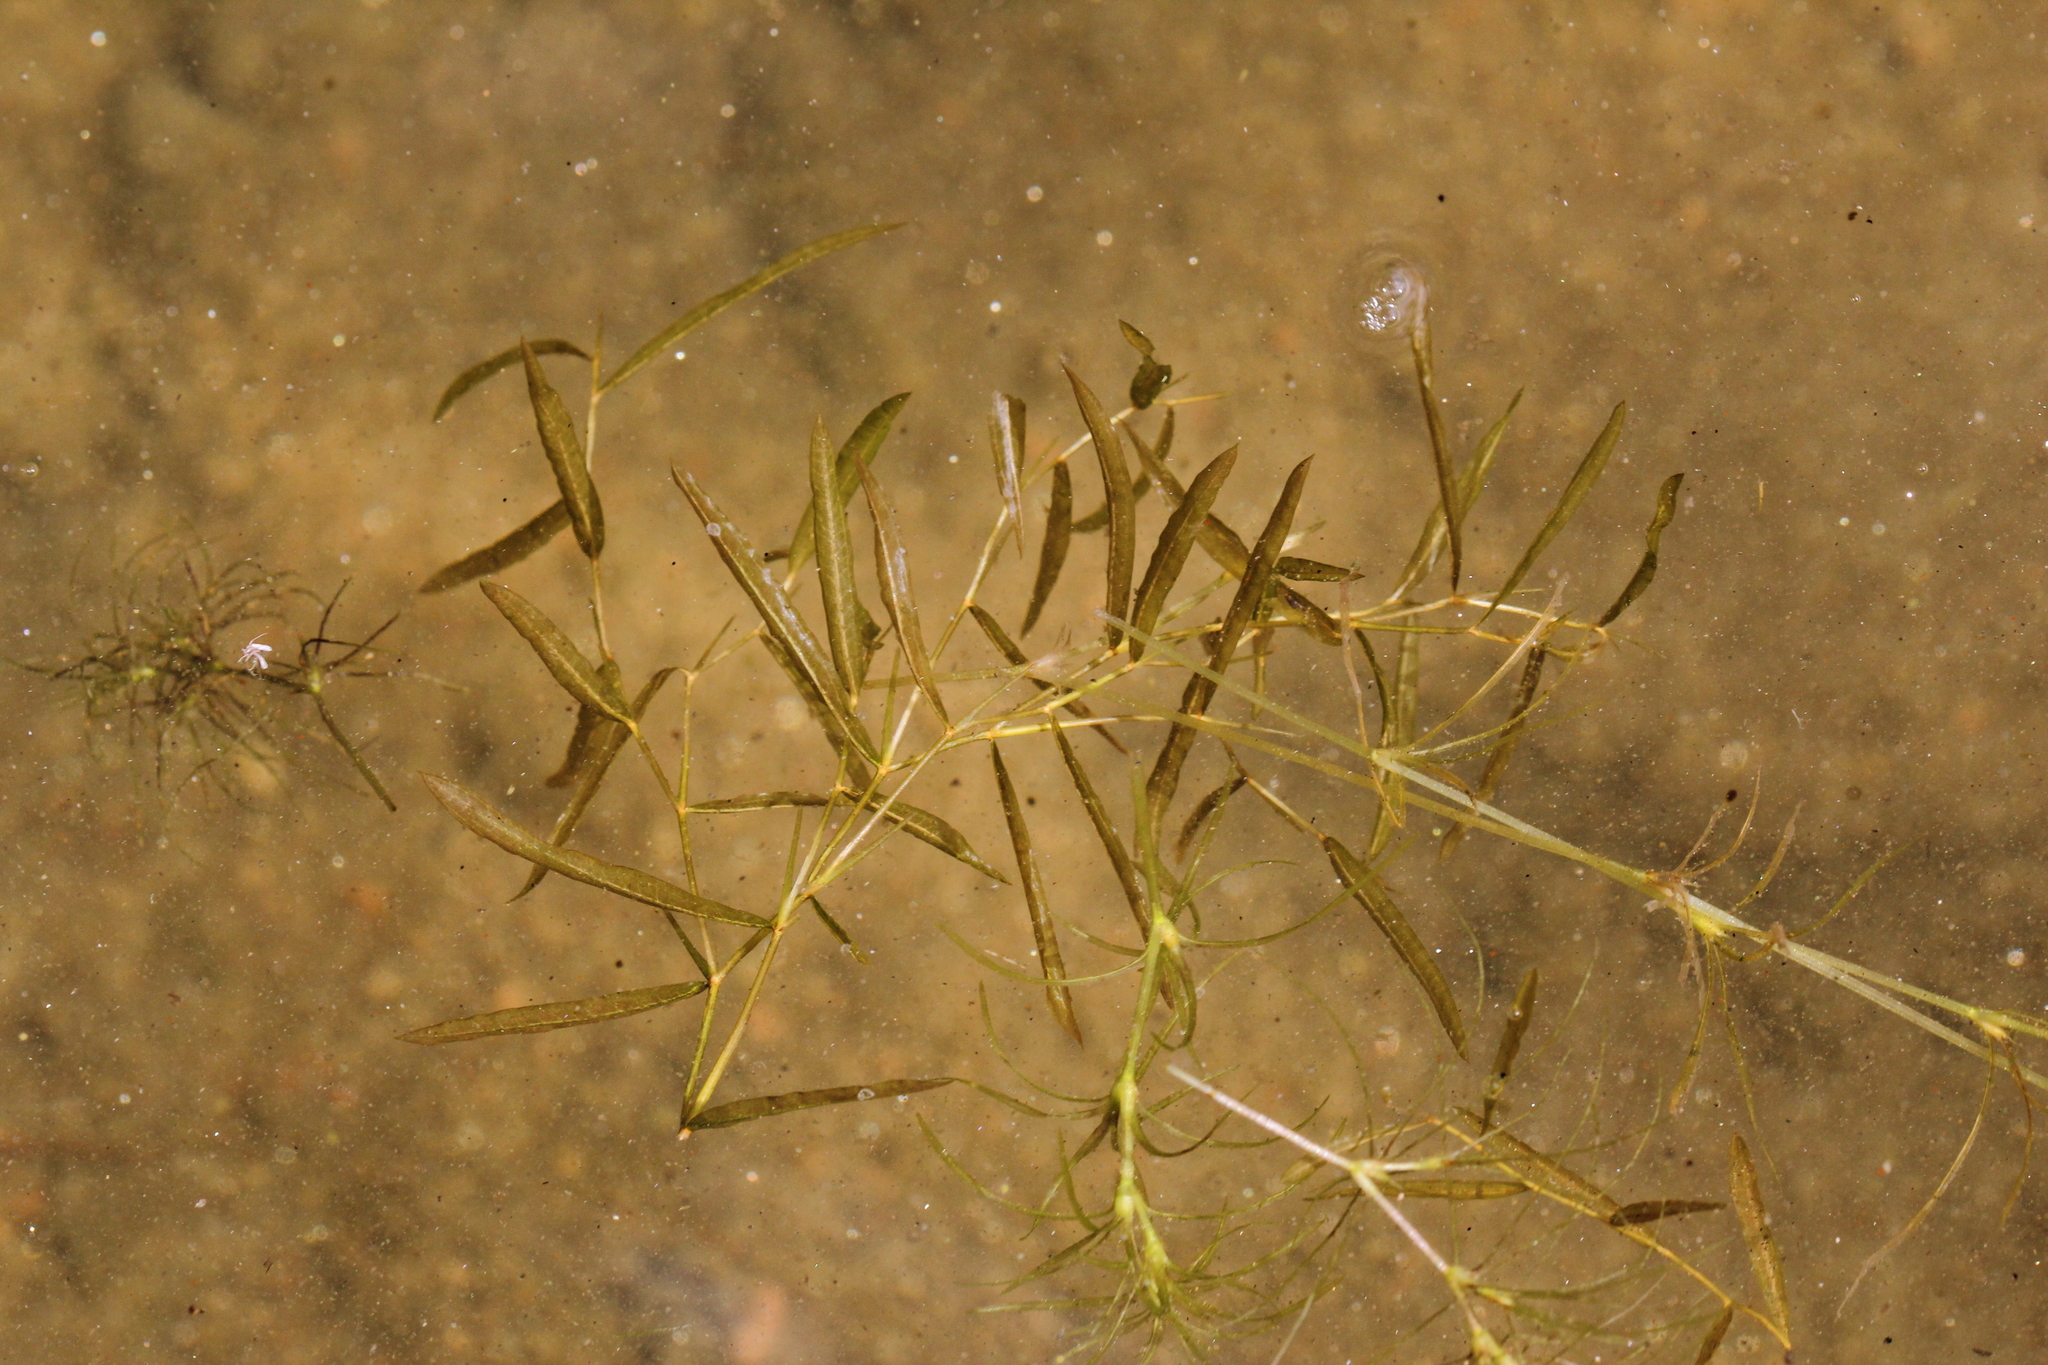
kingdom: Plantae
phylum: Tracheophyta
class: Liliopsida
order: Alismatales
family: Potamogetonaceae
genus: Potamogeton
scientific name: Potamogeton gramineus
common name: Various-leaved pondweed
